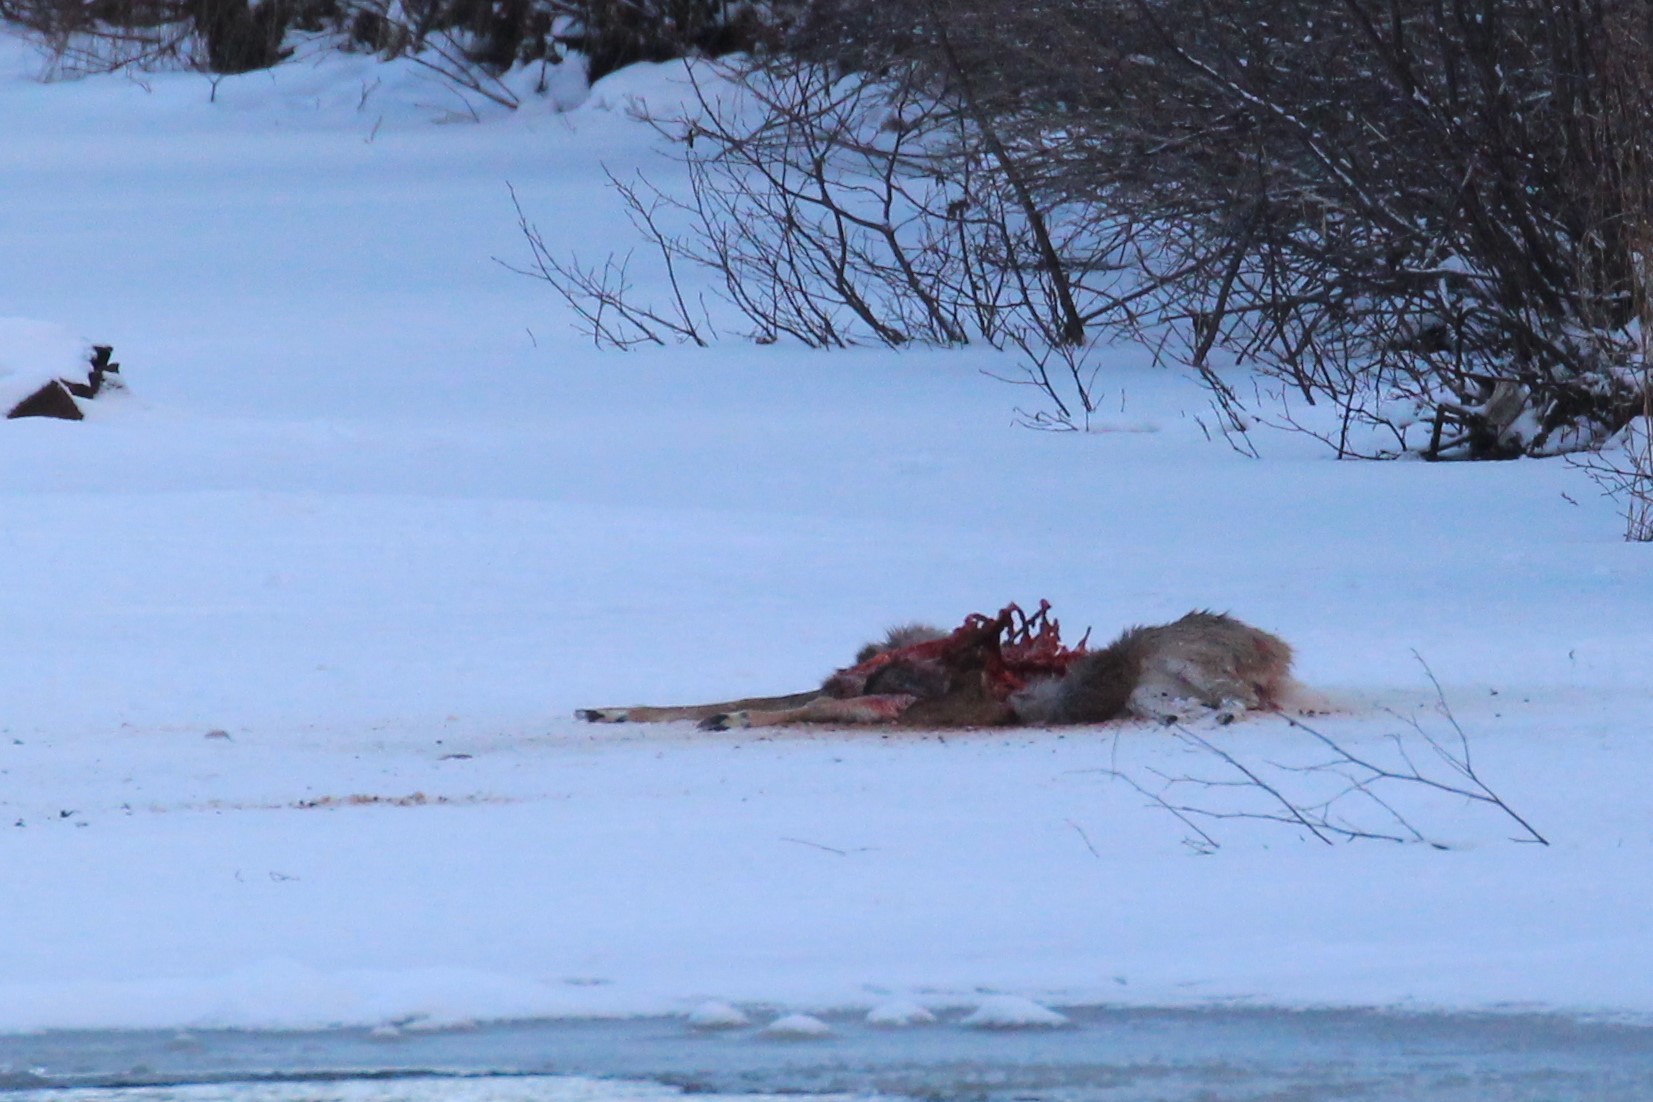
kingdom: Animalia
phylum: Chordata
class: Mammalia
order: Artiodactyla
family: Cervidae
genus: Odocoileus
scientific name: Odocoileus virginianus
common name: White-tailed deer
